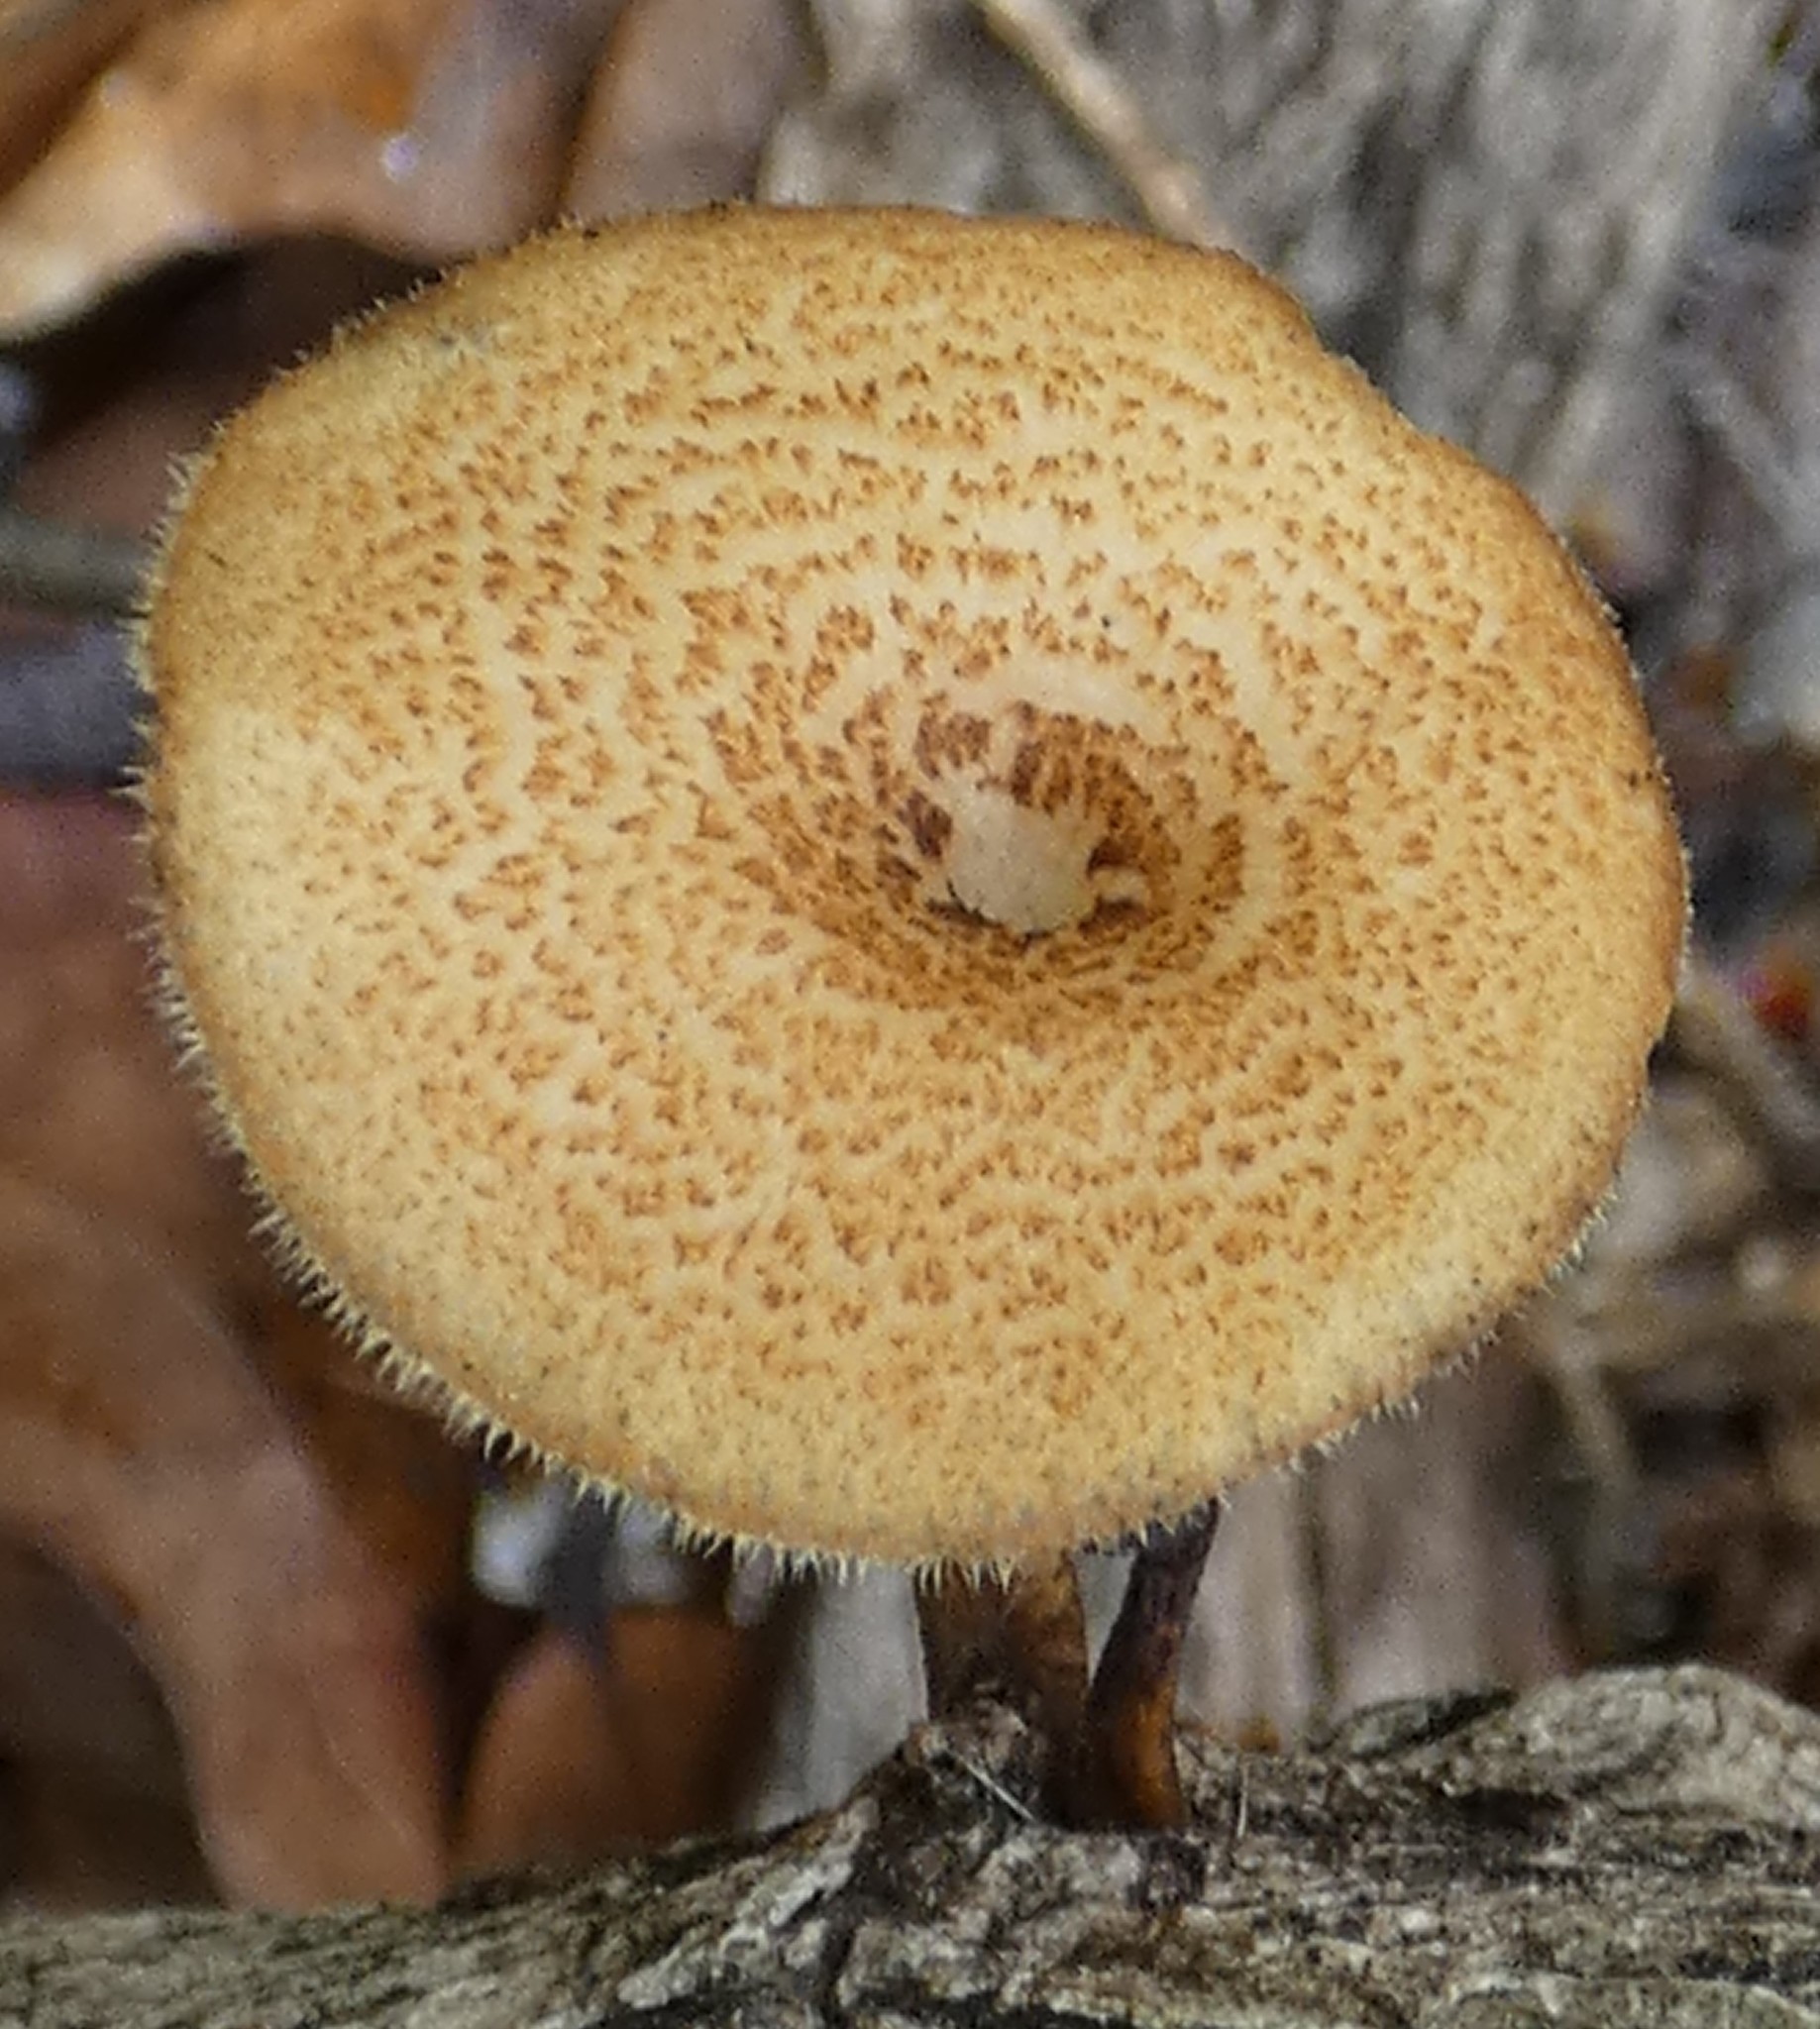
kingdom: Fungi
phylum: Basidiomycota
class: Agaricomycetes
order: Polyporales
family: Polyporaceae
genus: Lentinus
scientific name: Lentinus arcularius
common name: Spring polypore
